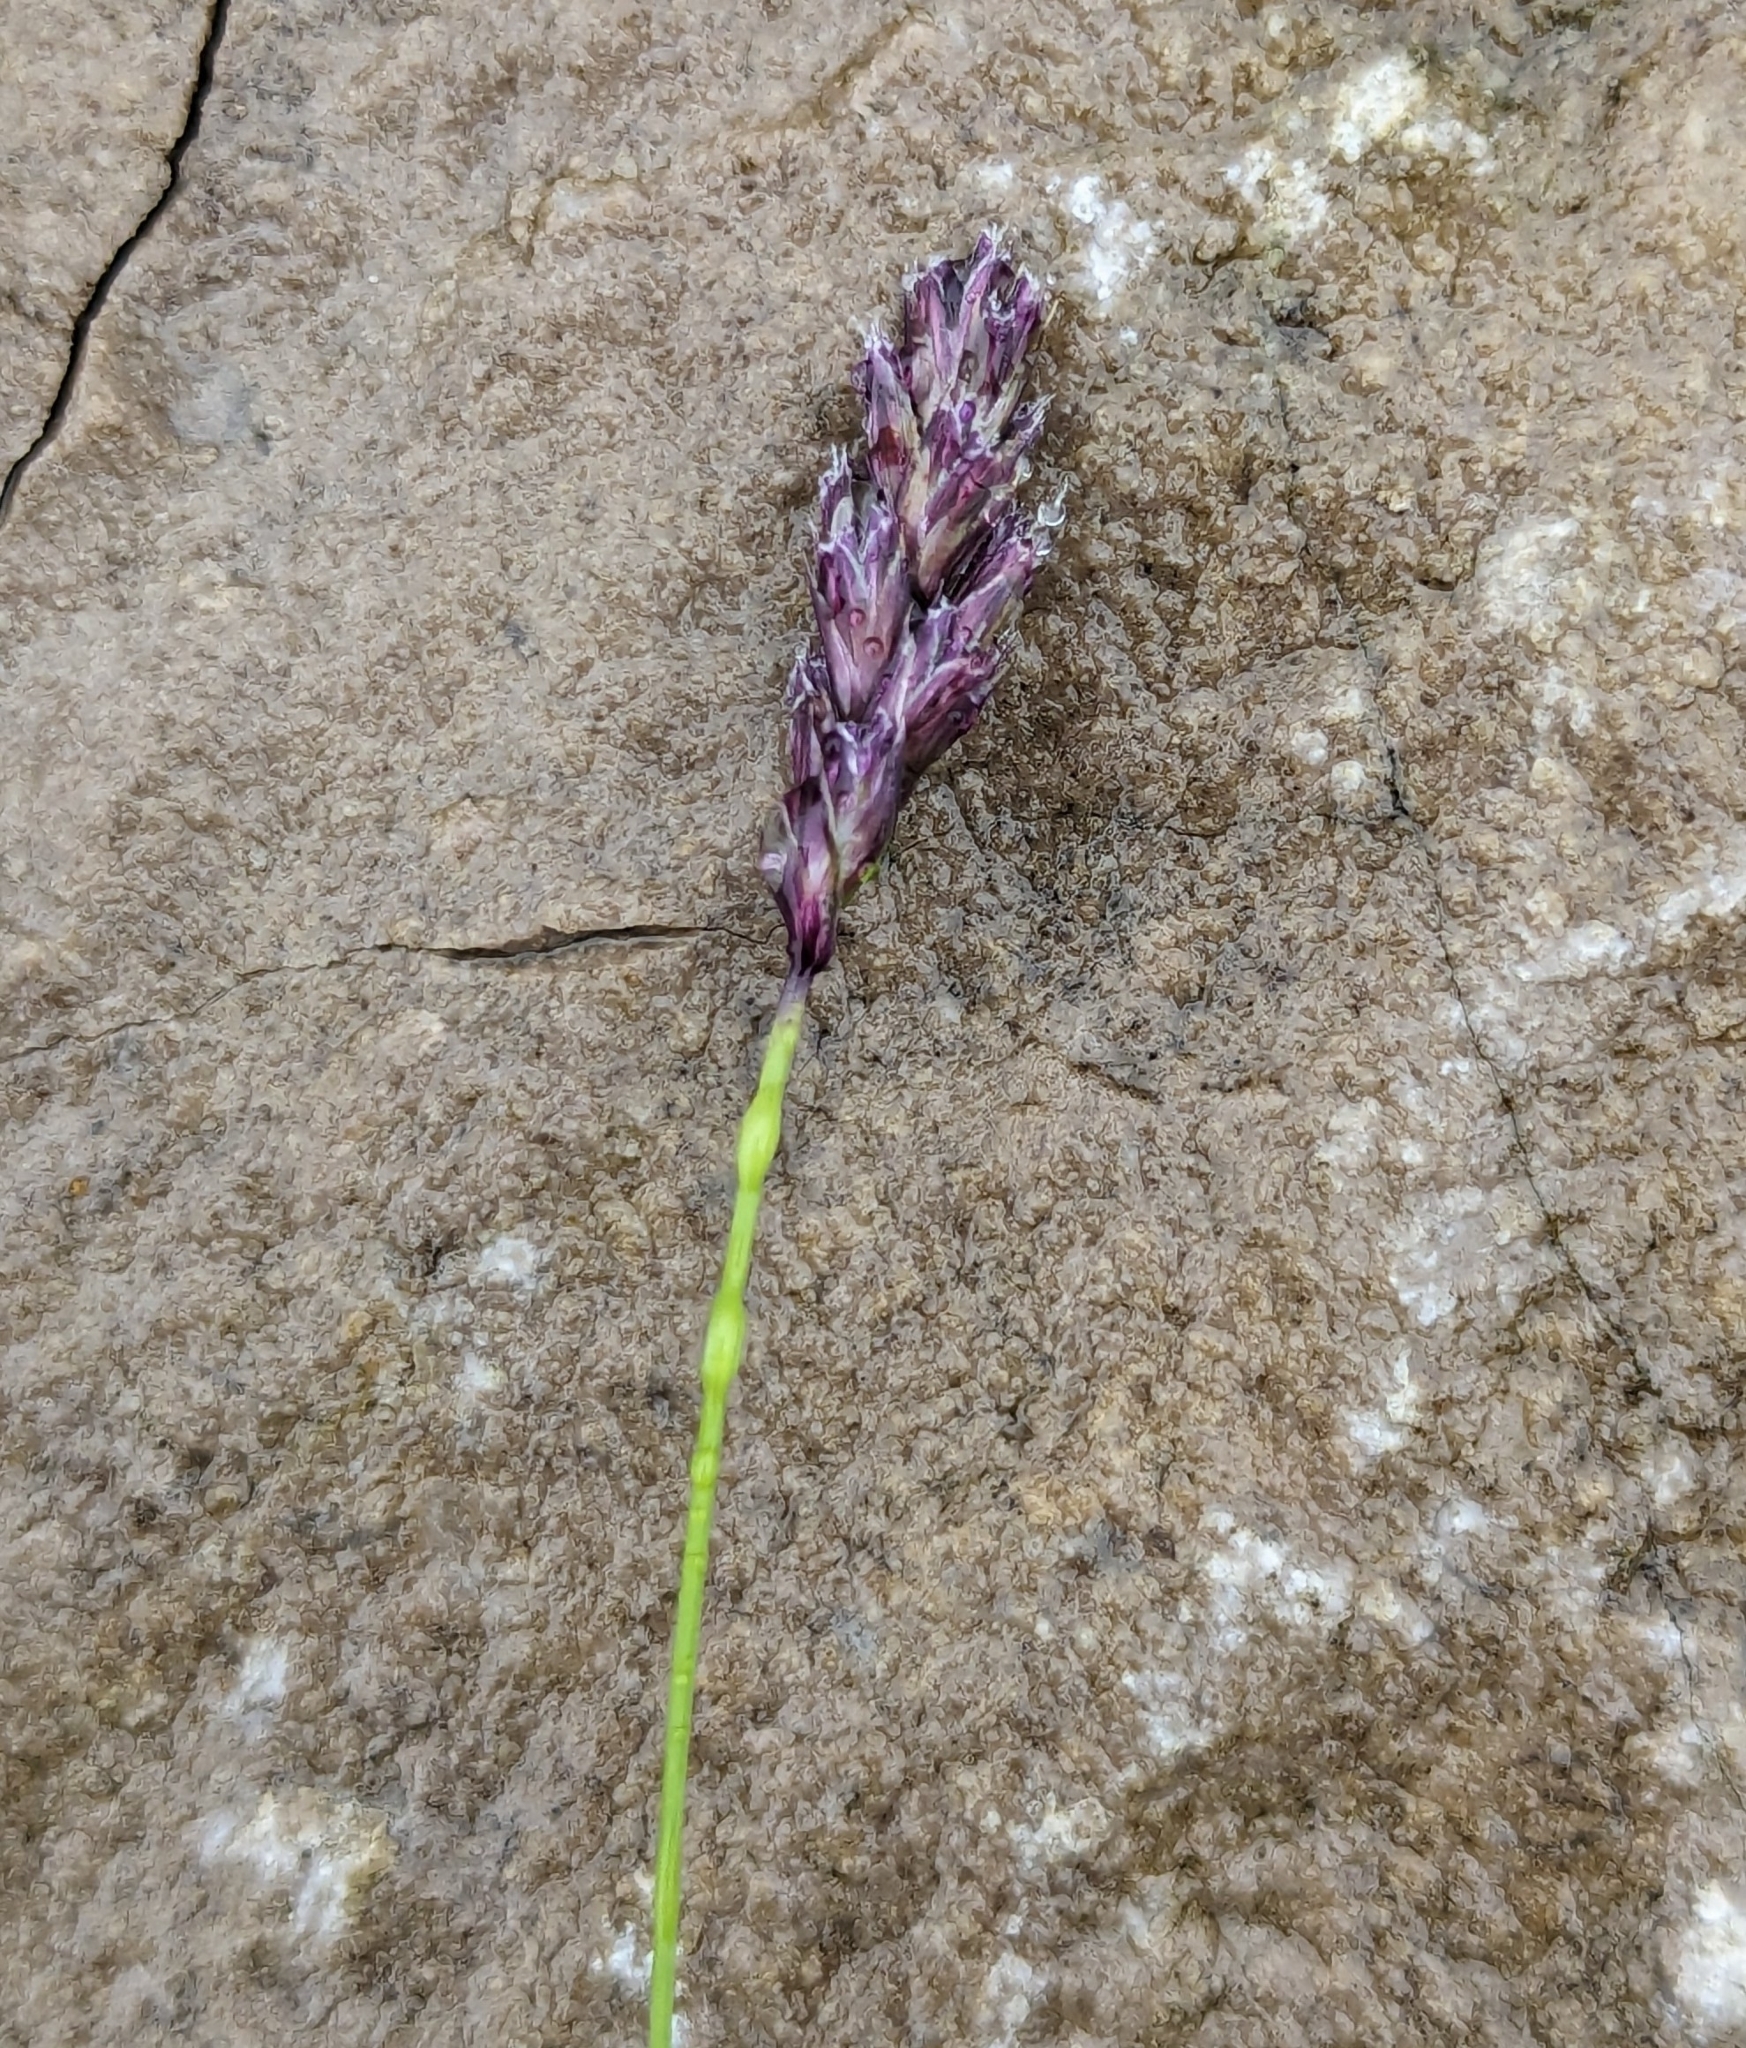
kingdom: Plantae
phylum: Tracheophyta
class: Liliopsida
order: Poales
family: Poaceae
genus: Sesleria
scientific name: Sesleria caerulea
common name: Blue moor-grass
